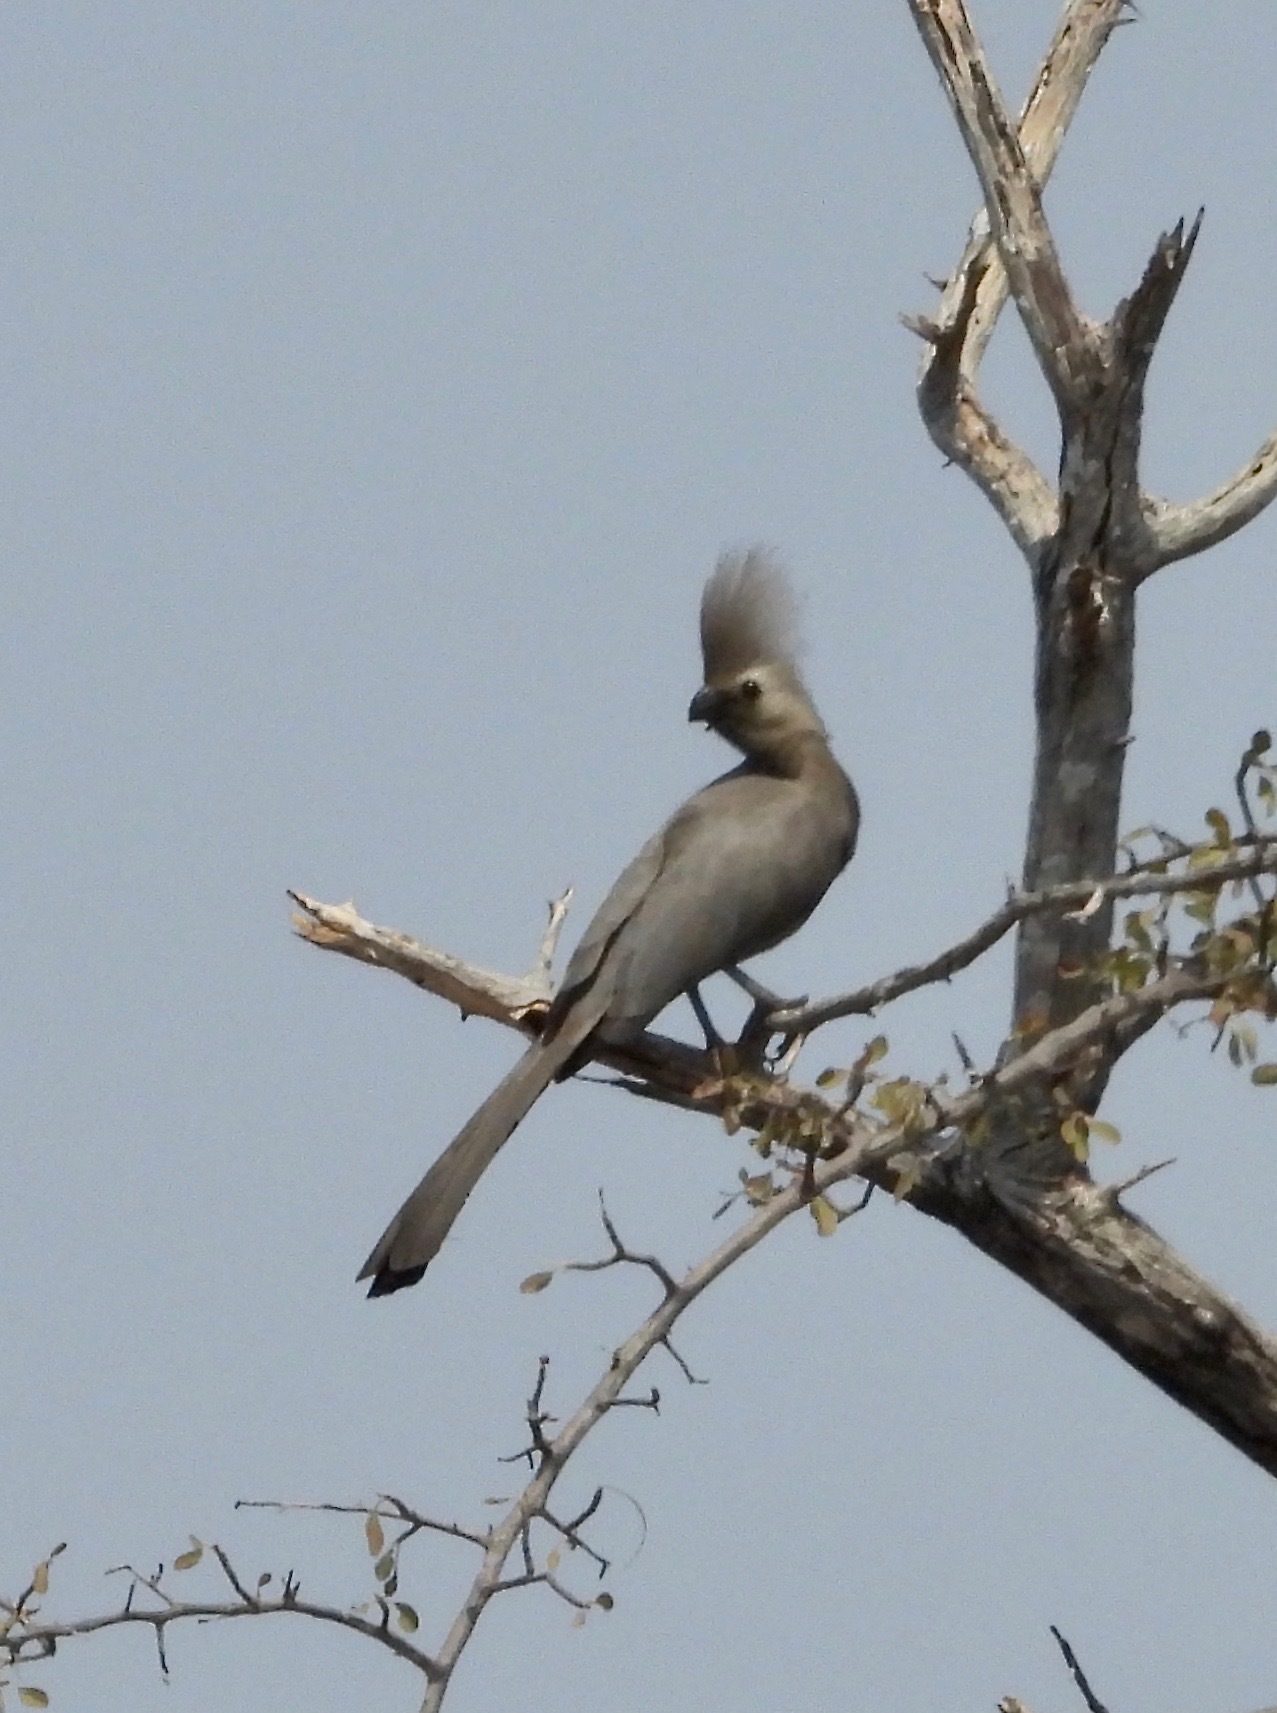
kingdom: Animalia
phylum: Chordata
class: Aves
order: Musophagiformes
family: Musophagidae
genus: Corythaixoides
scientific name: Corythaixoides concolor
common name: Grey go-away-bird
